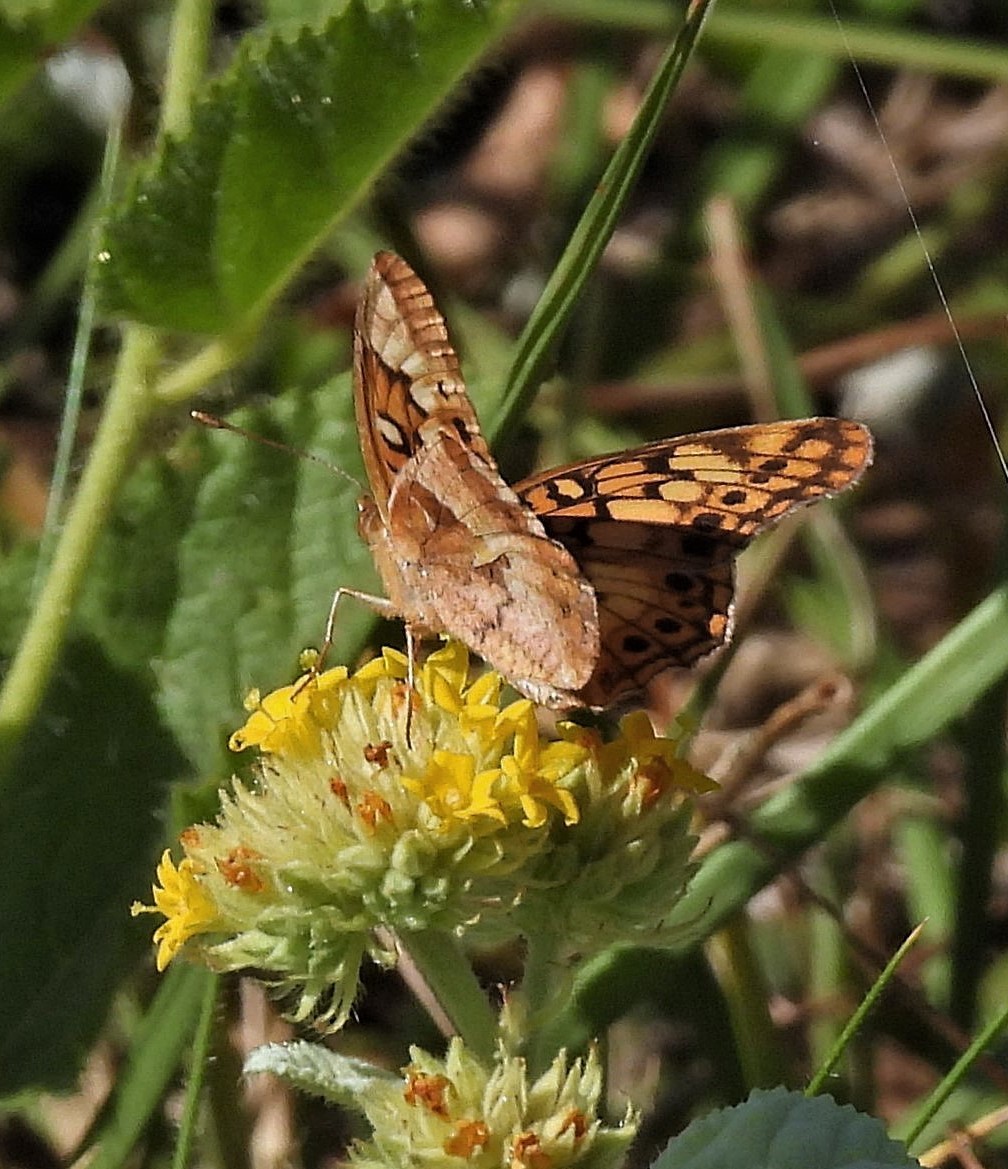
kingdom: Animalia
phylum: Arthropoda
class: Insecta
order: Lepidoptera
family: Nymphalidae
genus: Euptoieta
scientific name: Euptoieta hortensia
